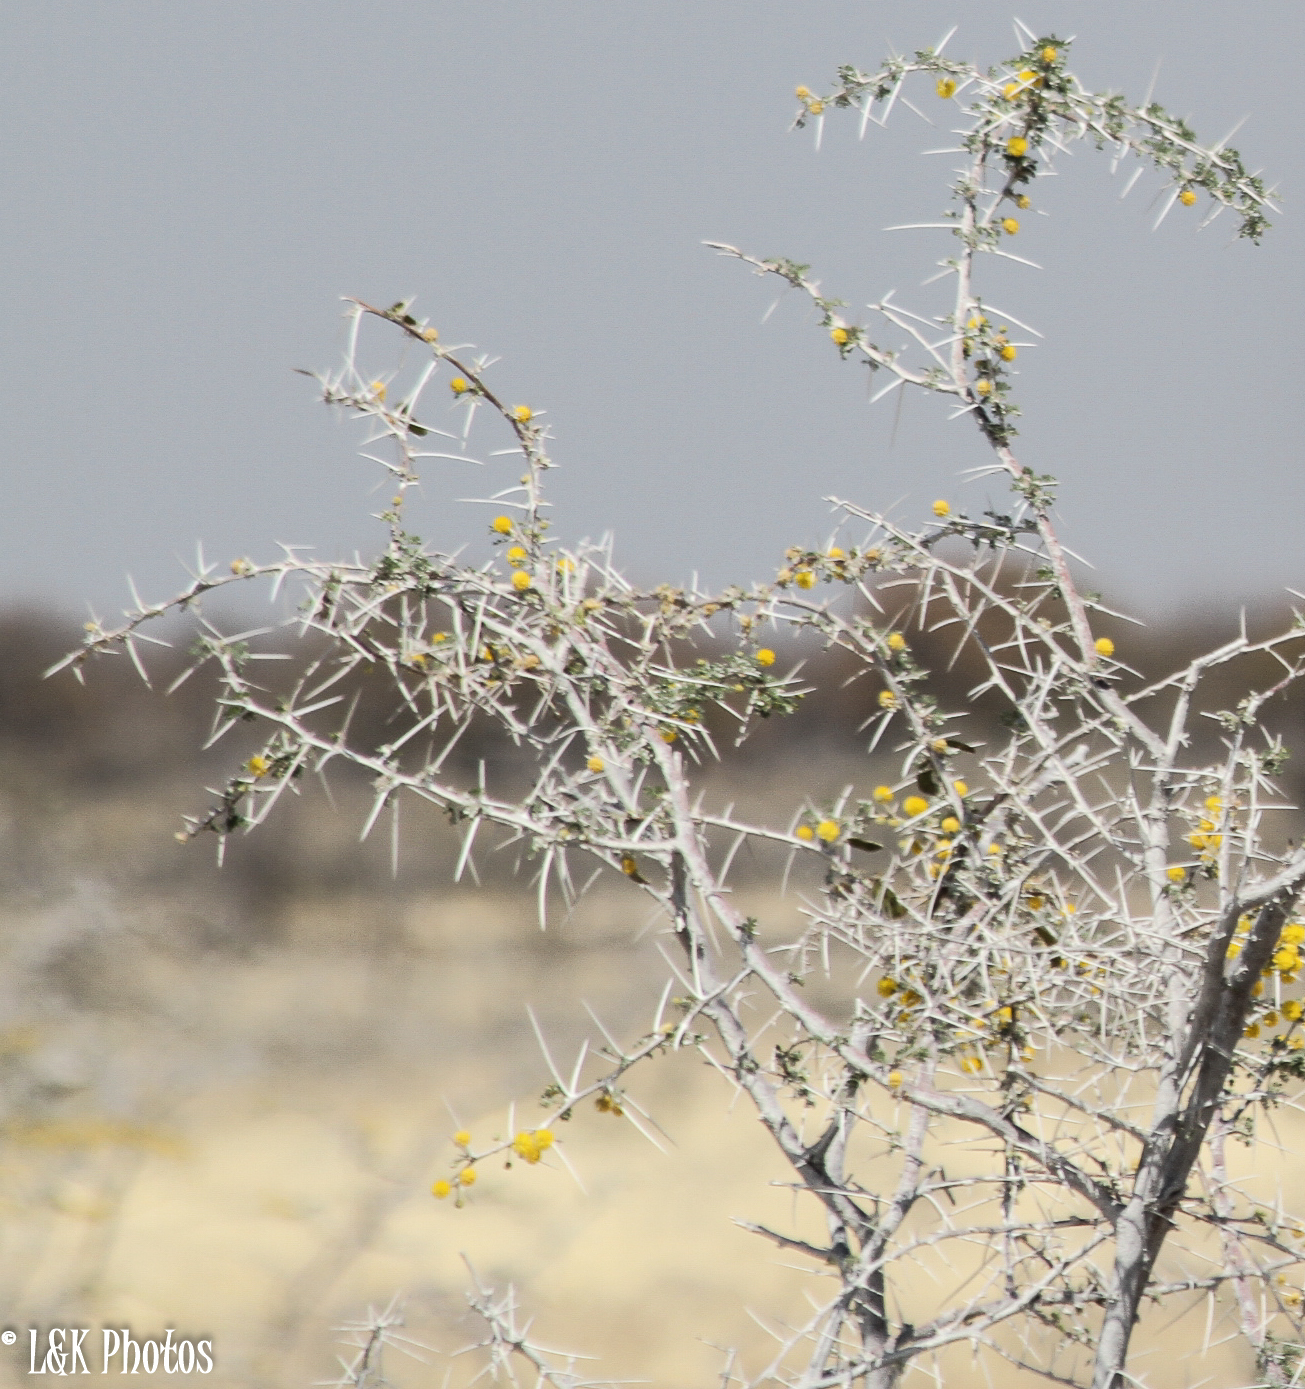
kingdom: Plantae
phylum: Tracheophyta
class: Magnoliopsida
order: Fabales
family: Fabaceae
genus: Vachellia
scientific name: Vachellia nebrownii
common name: Water acacia
